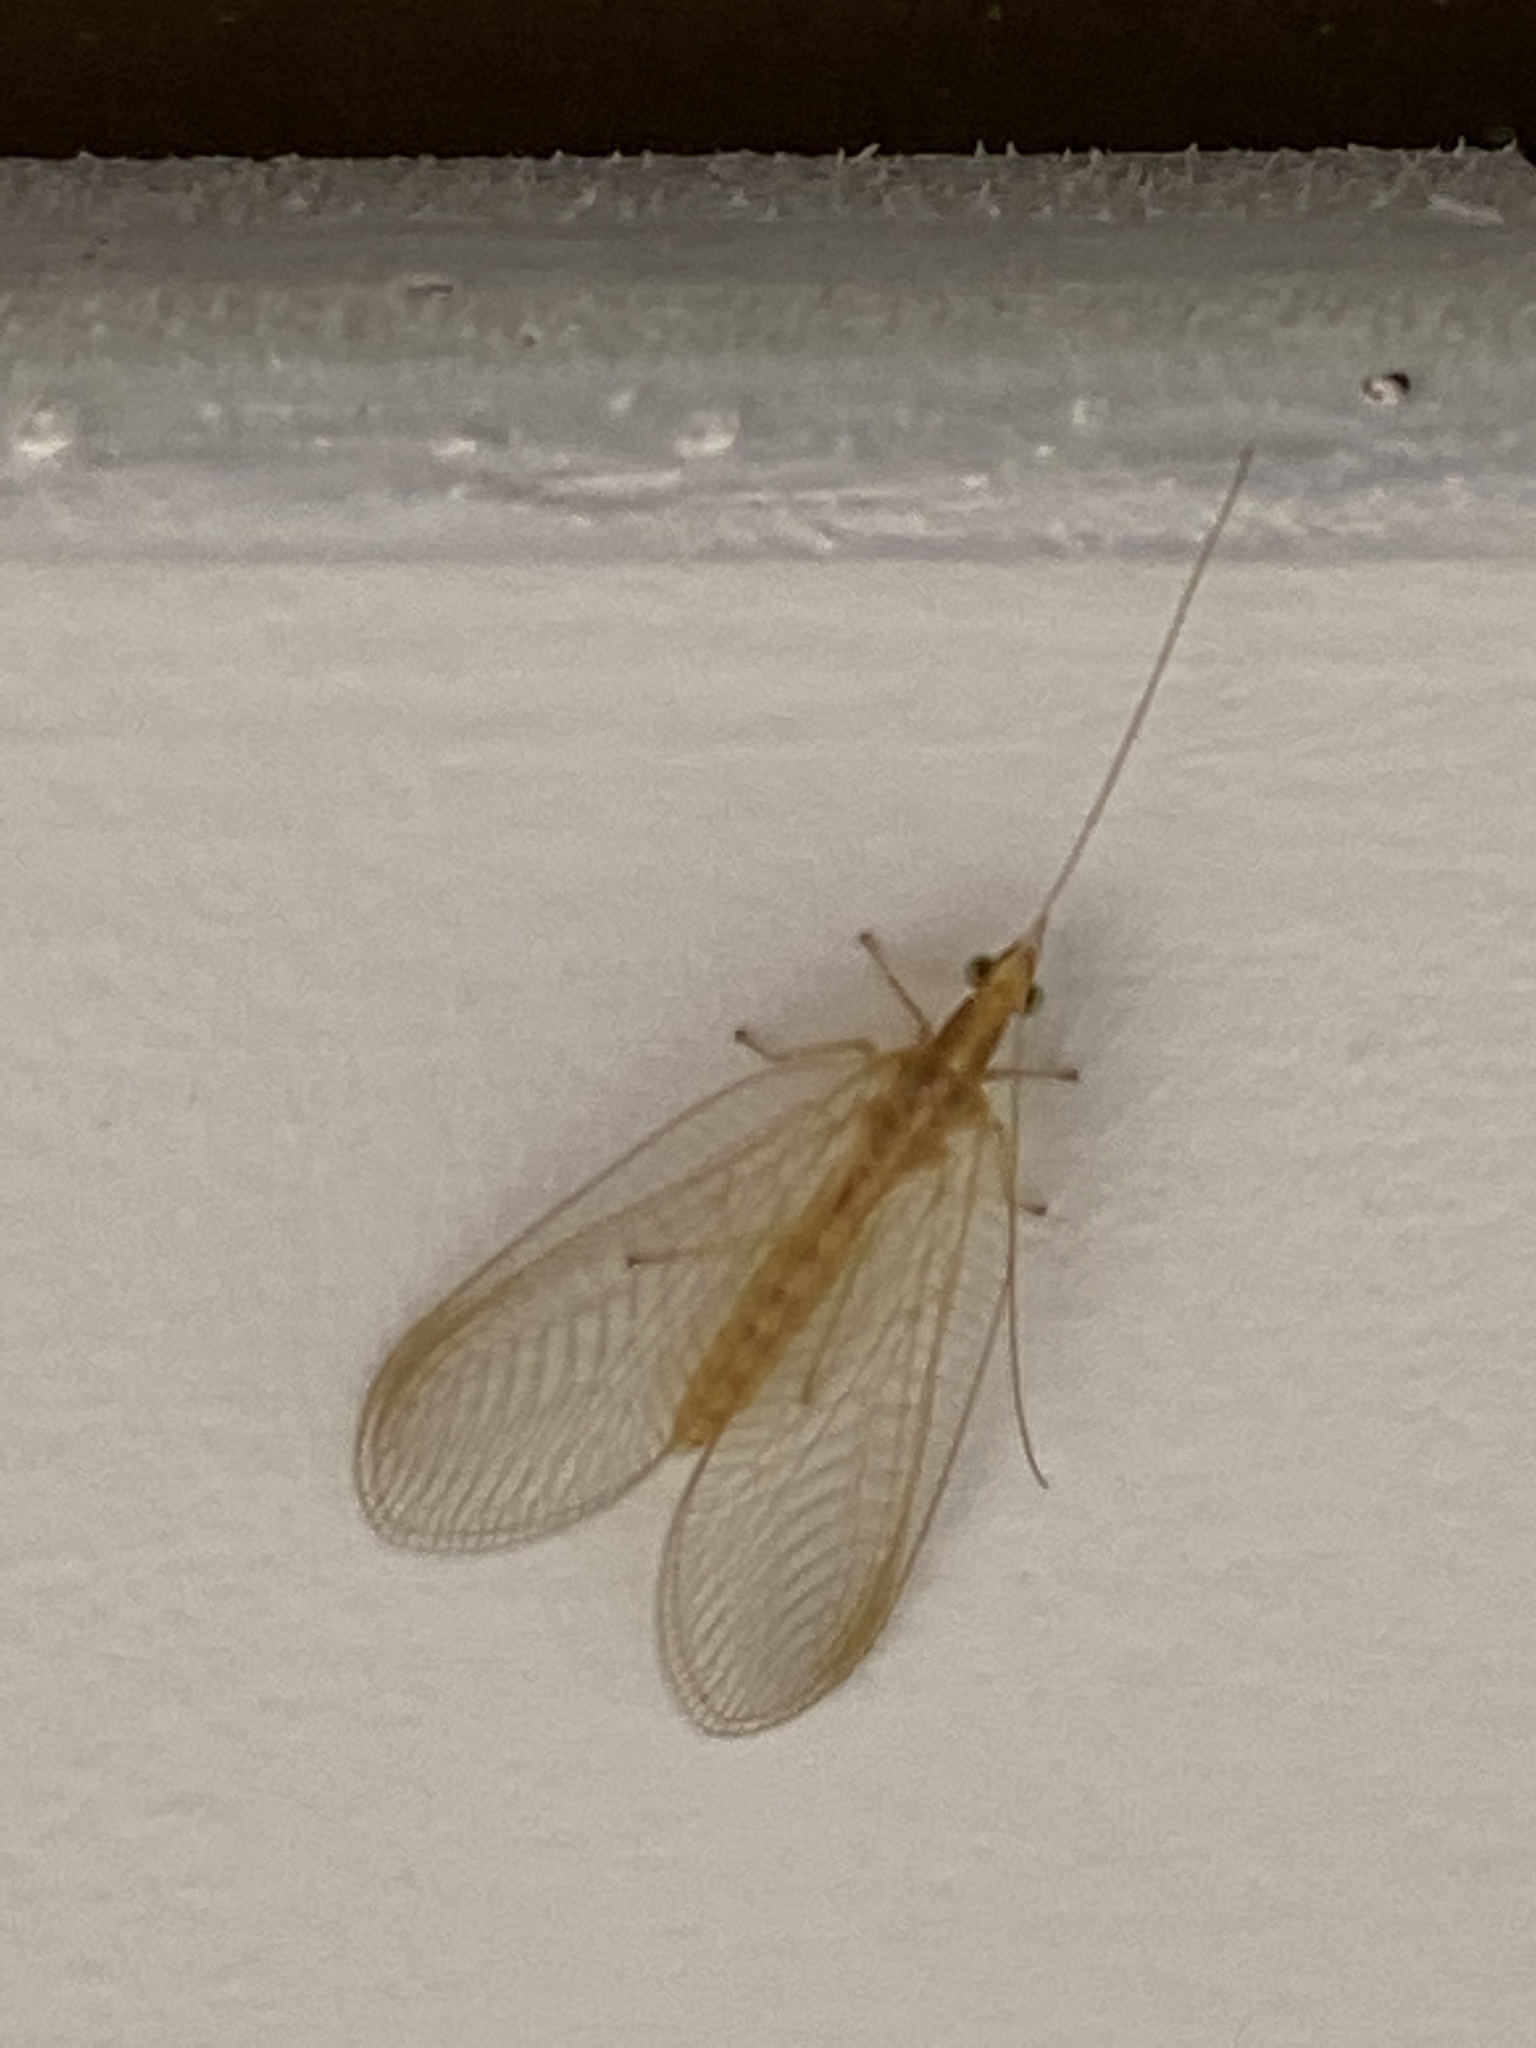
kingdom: Animalia
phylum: Arthropoda
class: Insecta
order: Neuroptera
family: Chrysopidae
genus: Chrysoperla
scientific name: Chrysoperla
